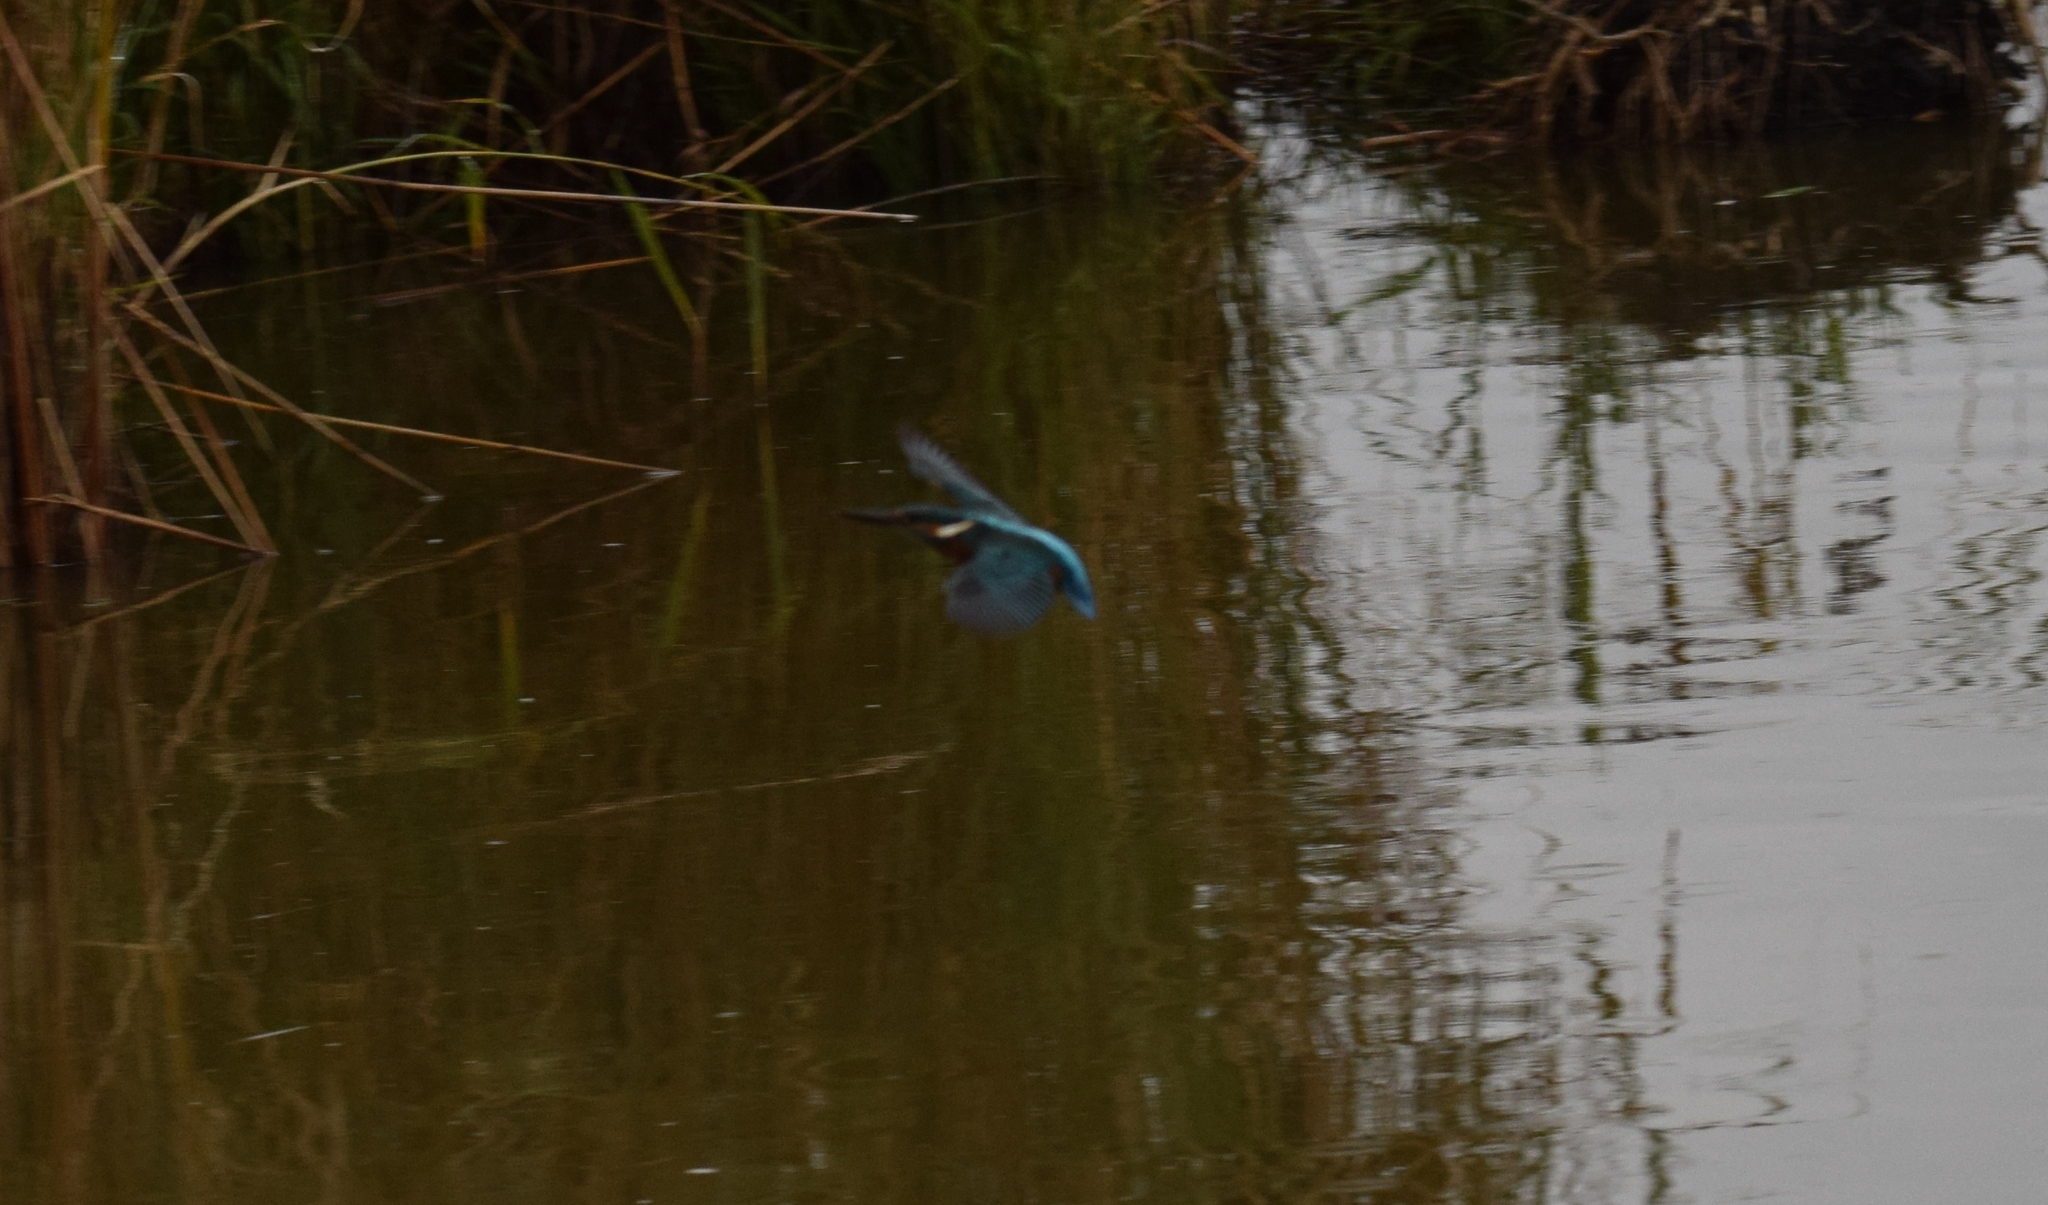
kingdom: Animalia
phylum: Chordata
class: Aves
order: Coraciiformes
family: Alcedinidae
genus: Alcedo
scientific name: Alcedo atthis
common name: Common kingfisher
